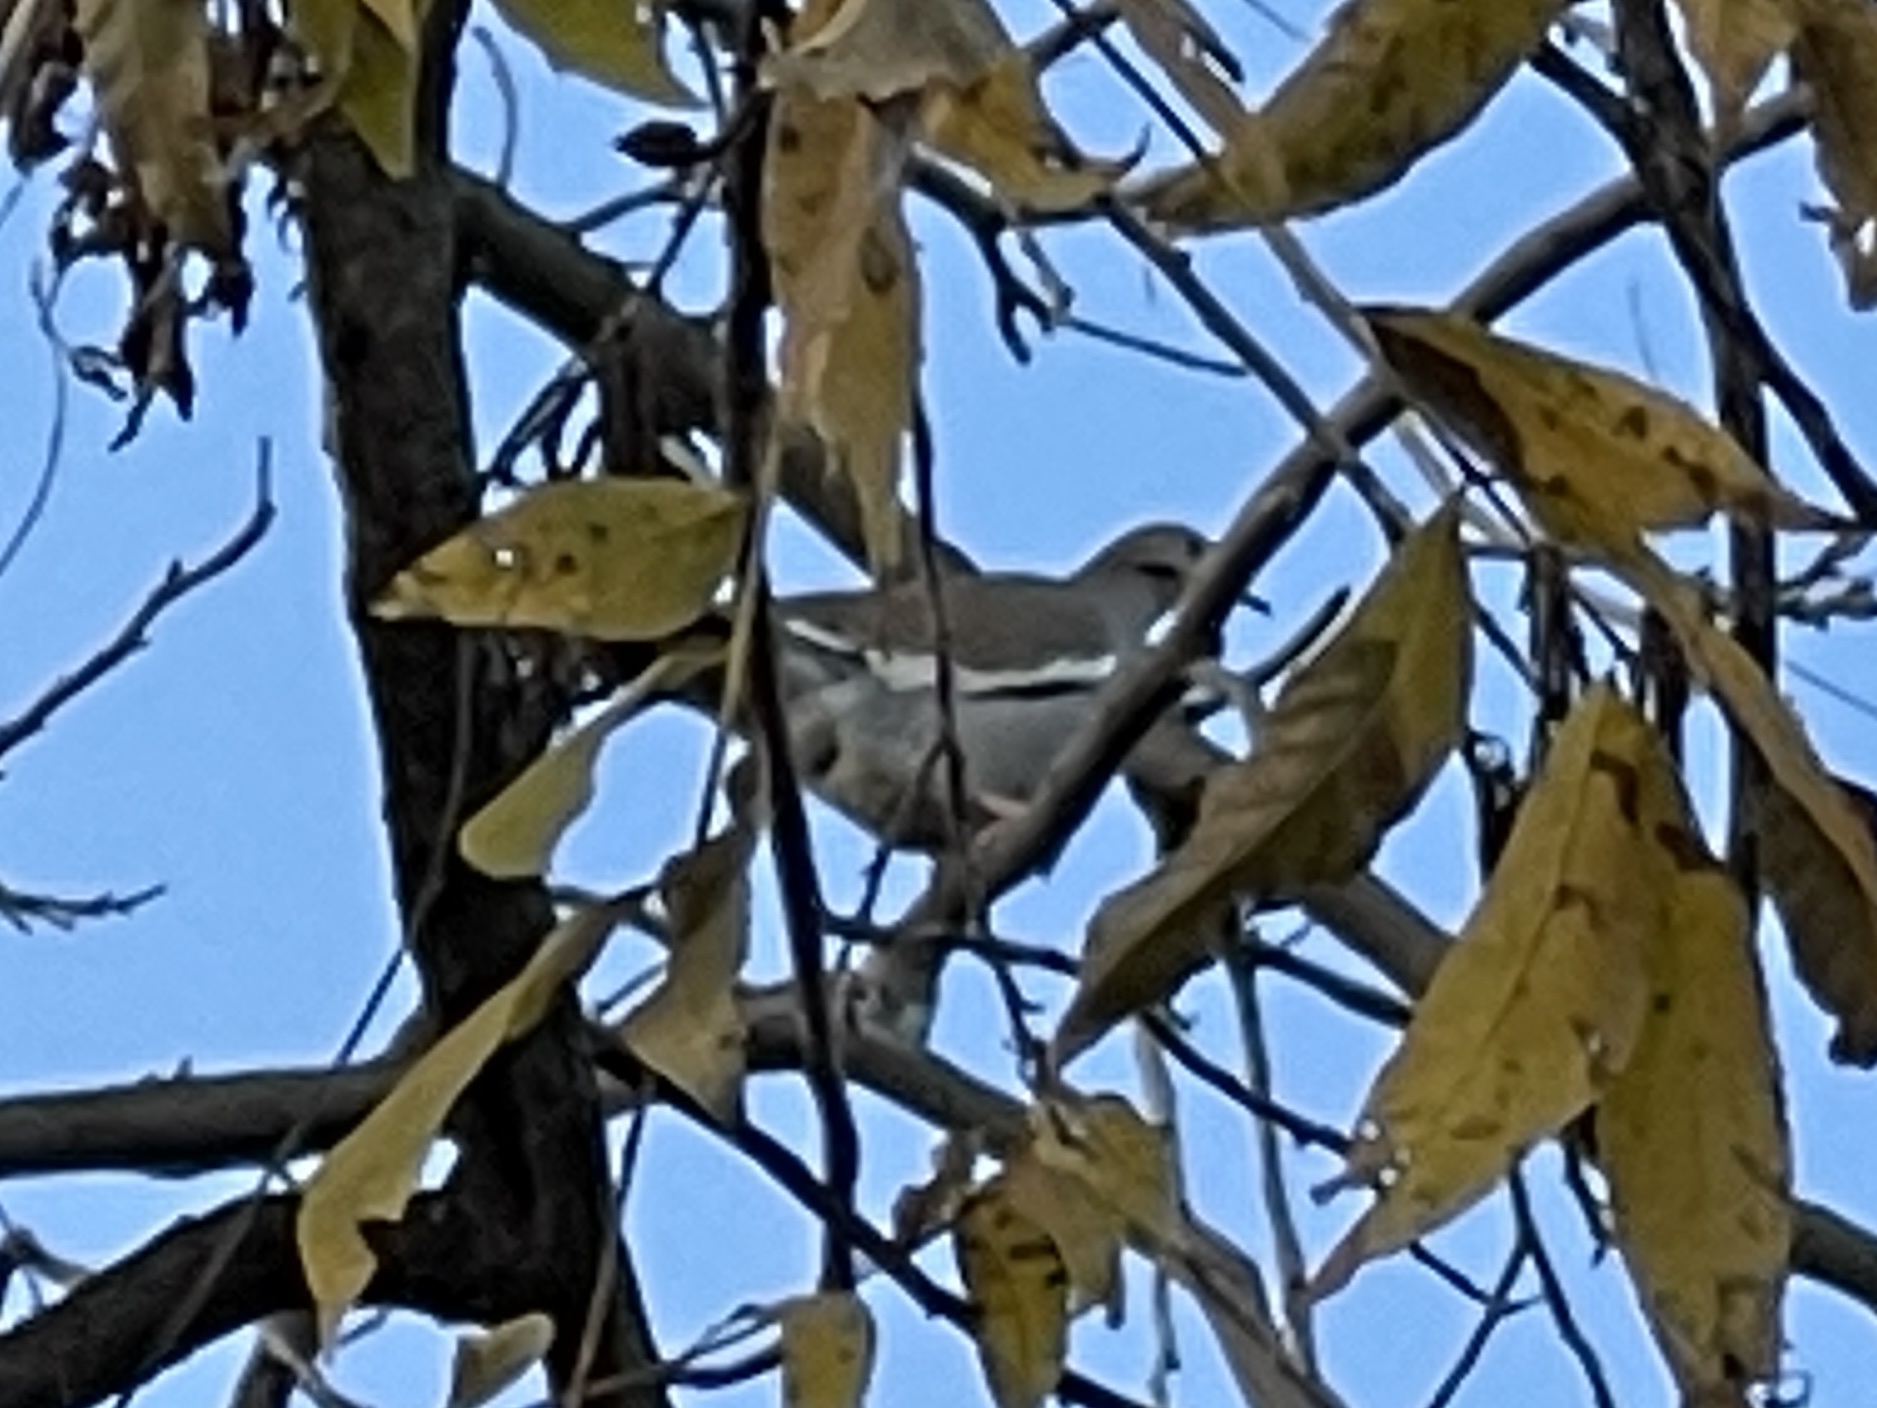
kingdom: Animalia
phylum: Chordata
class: Aves
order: Columbiformes
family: Columbidae
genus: Zenaida
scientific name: Zenaida asiatica
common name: White-winged dove
